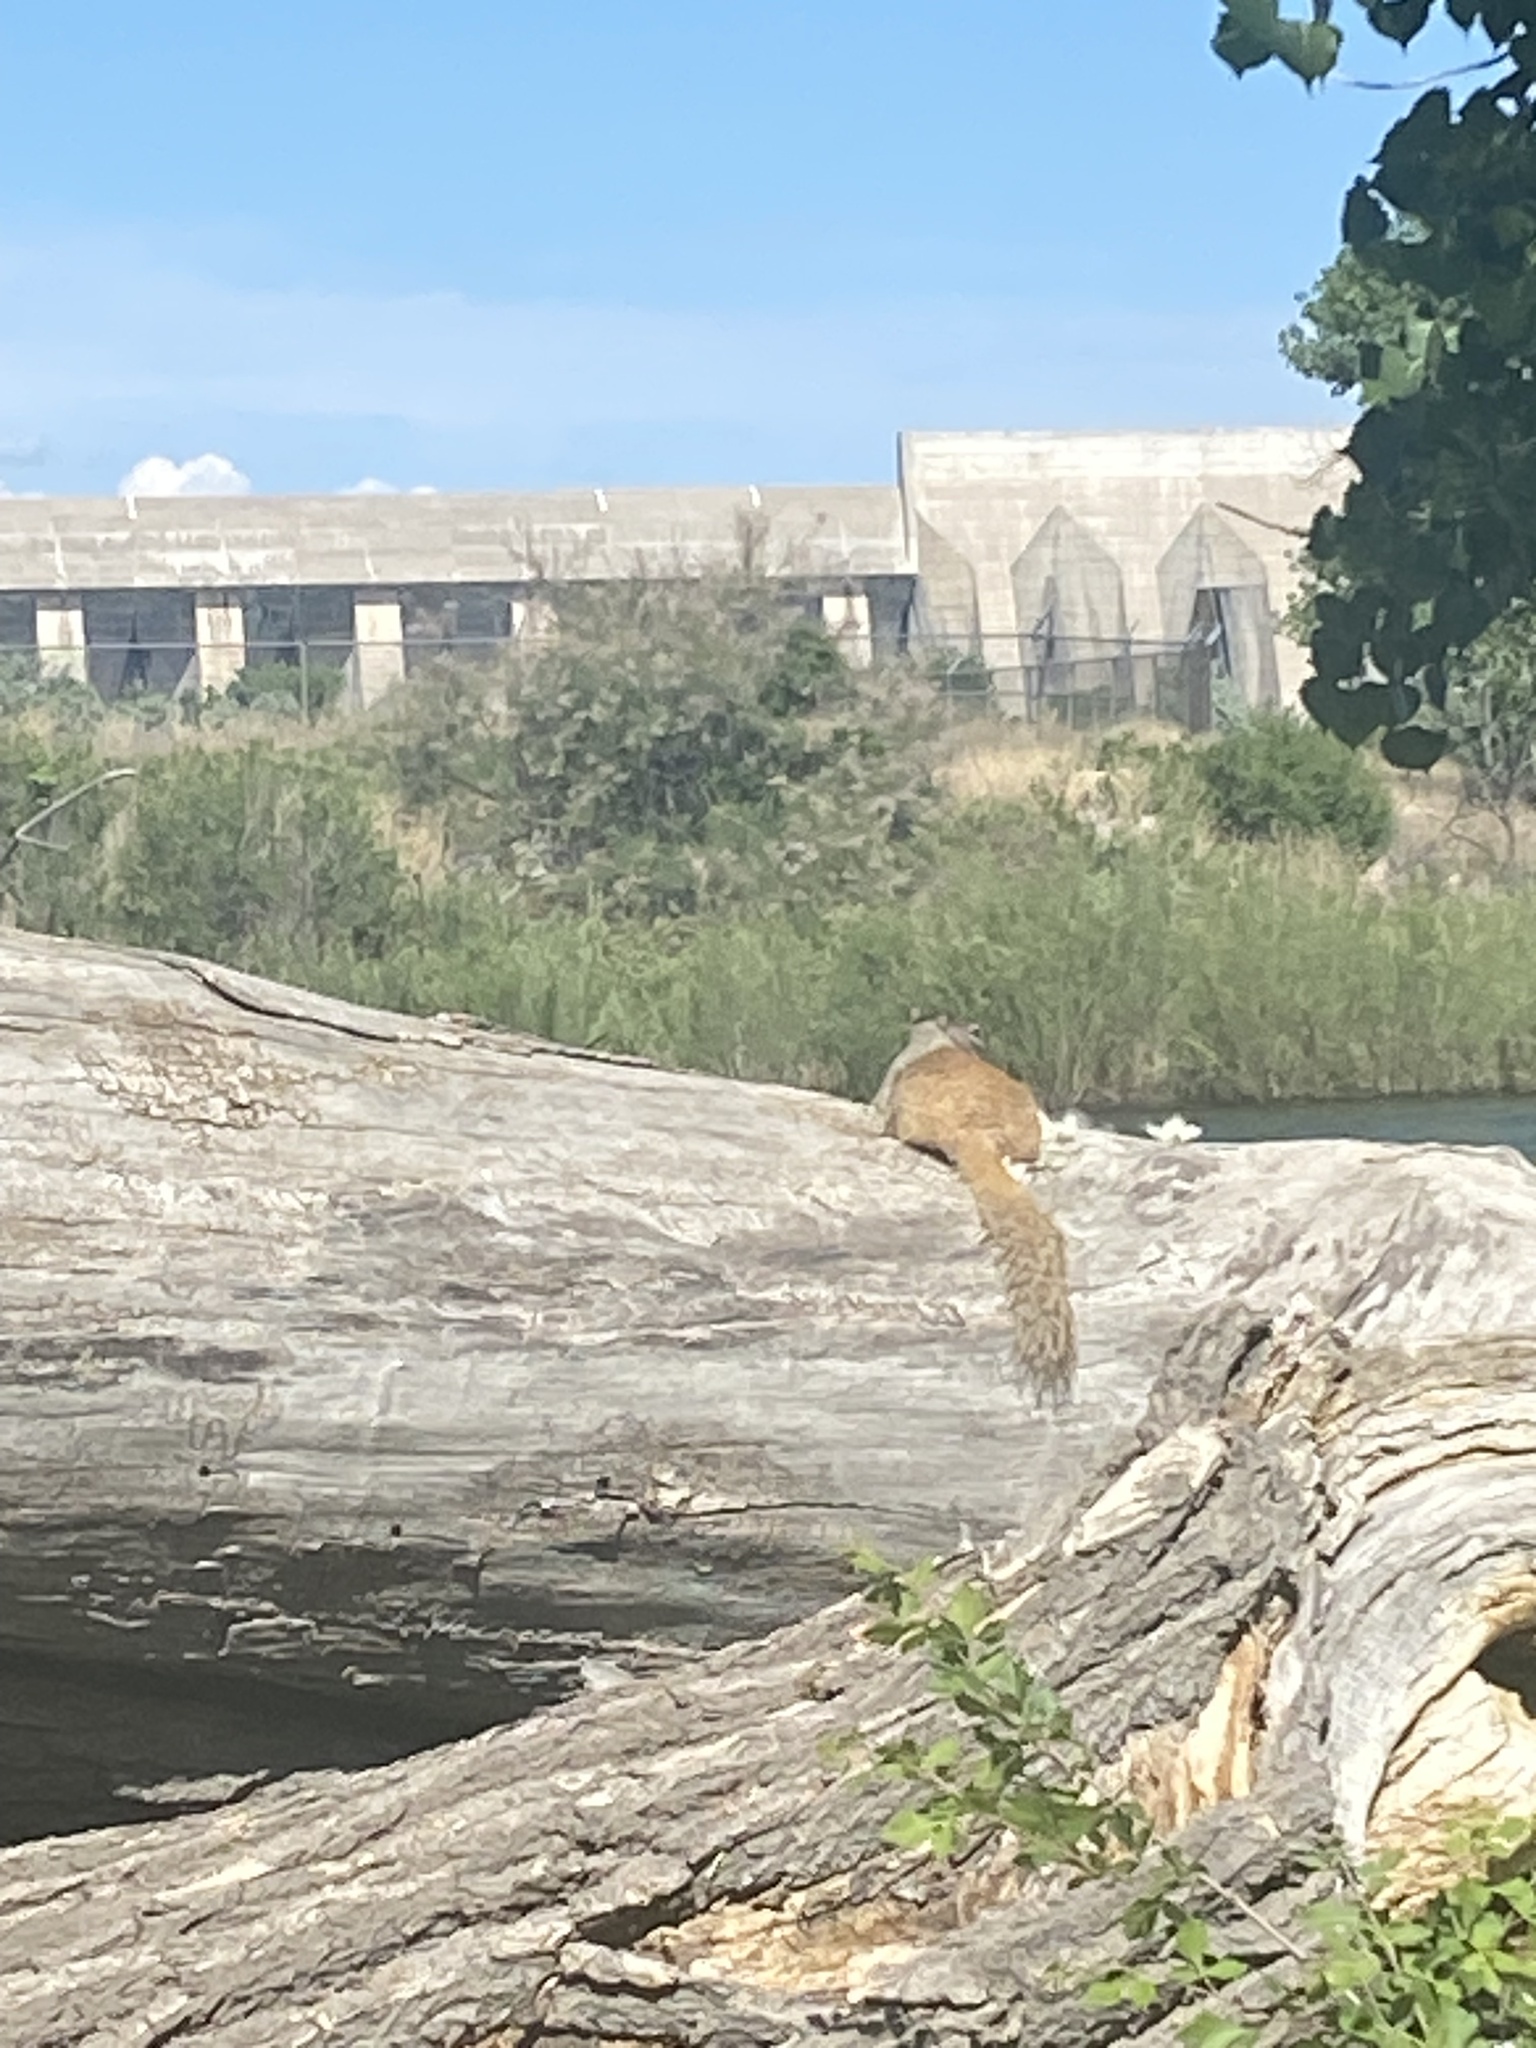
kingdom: Animalia
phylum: Chordata
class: Mammalia
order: Rodentia
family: Sciuridae
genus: Otospermophilus
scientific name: Otospermophilus variegatus
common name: Rock squirrel
